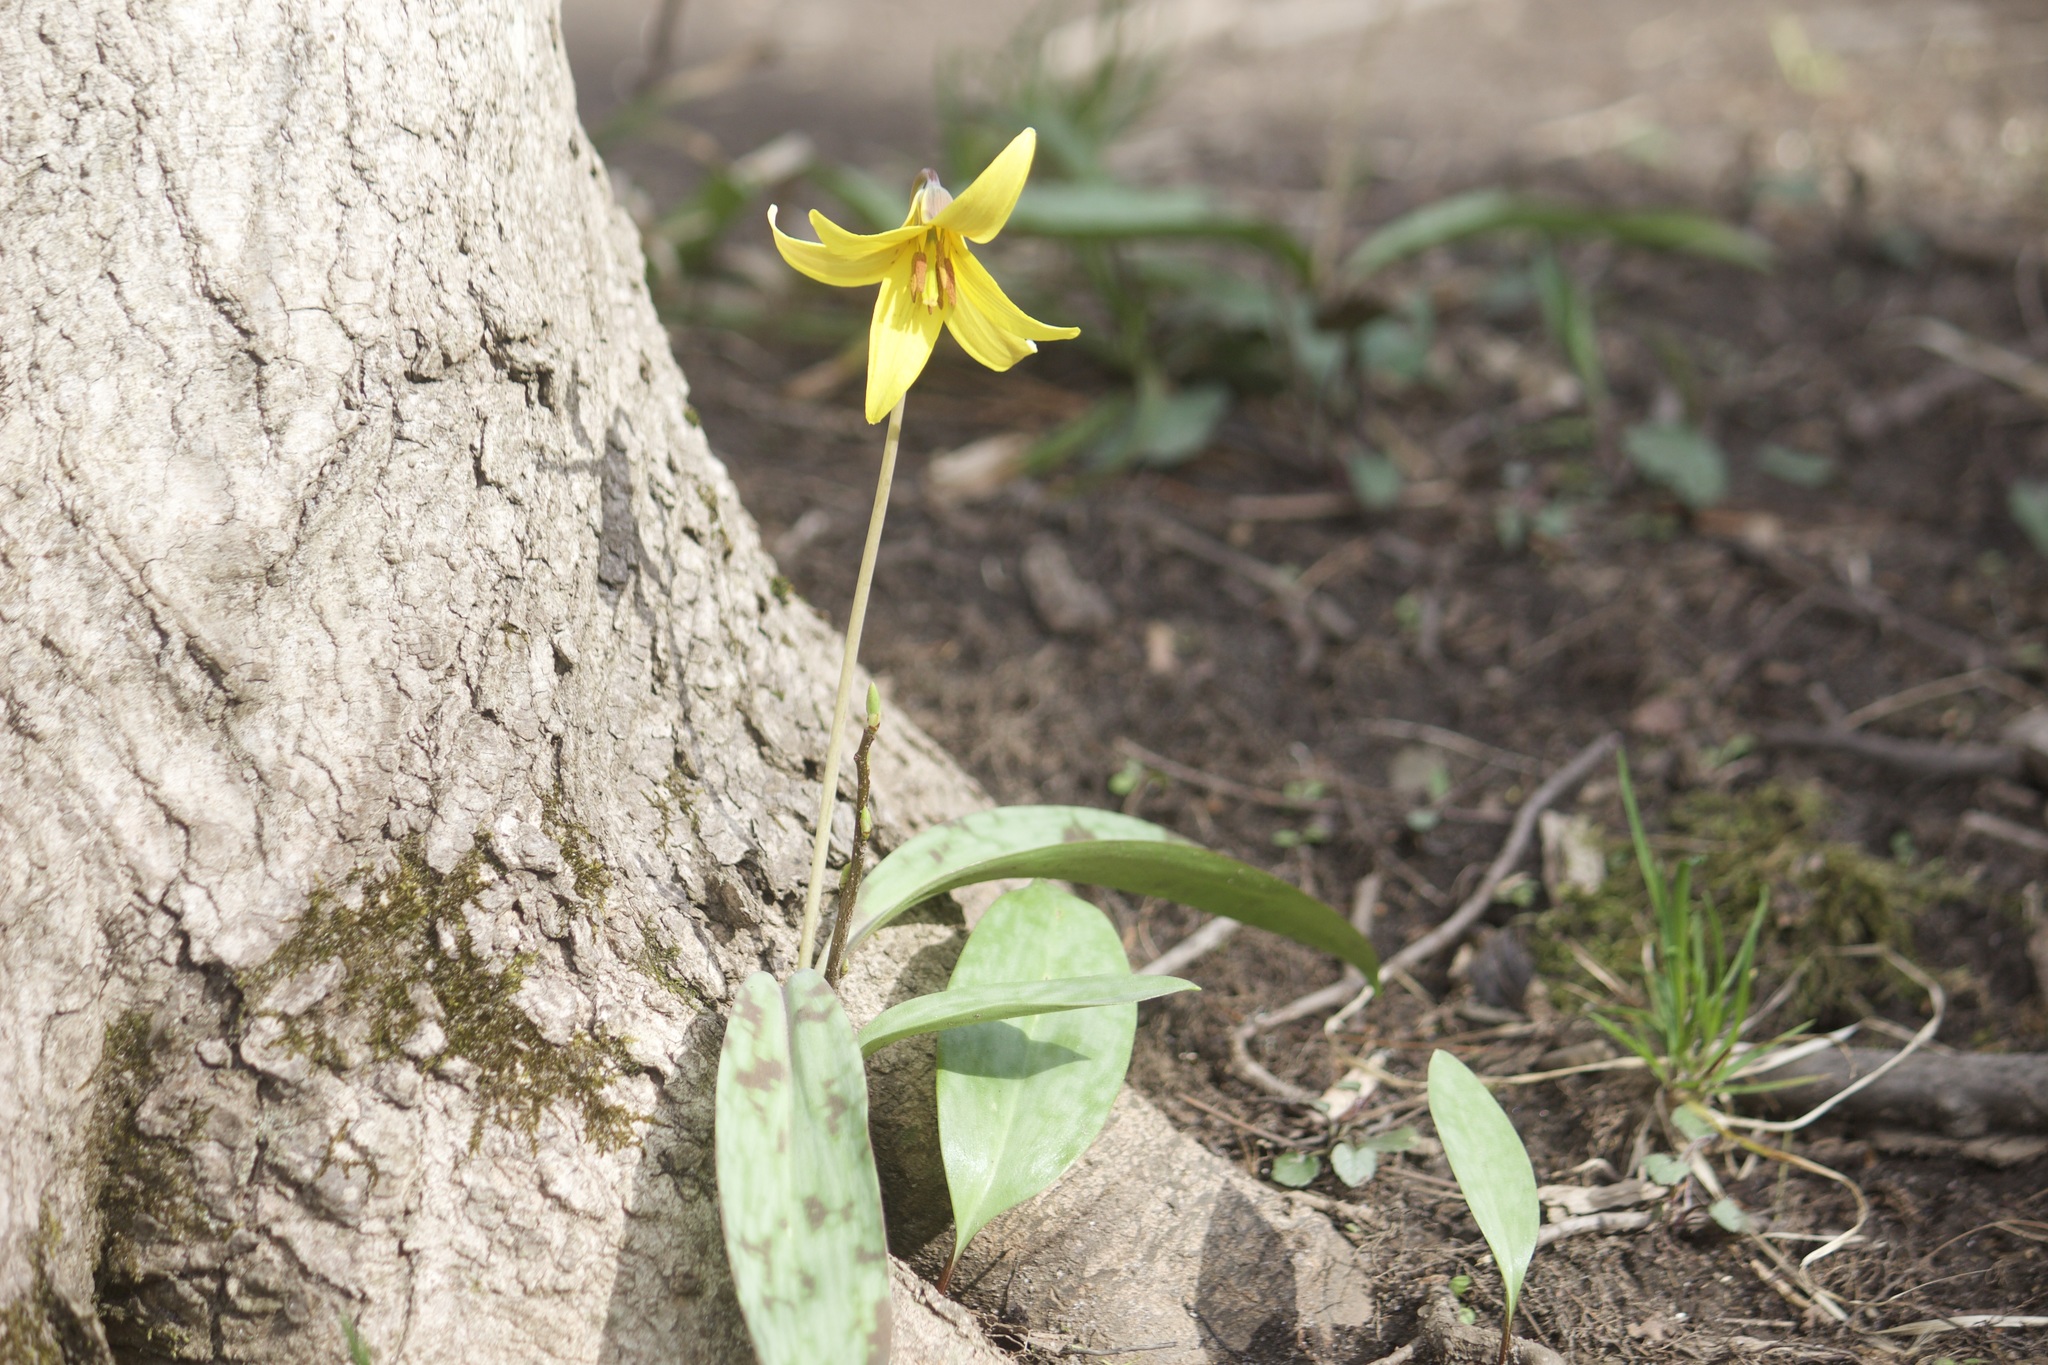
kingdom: Plantae
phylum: Tracheophyta
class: Liliopsida
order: Liliales
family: Liliaceae
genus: Erythronium
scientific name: Erythronium americanum
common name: Yellow adder's-tongue
